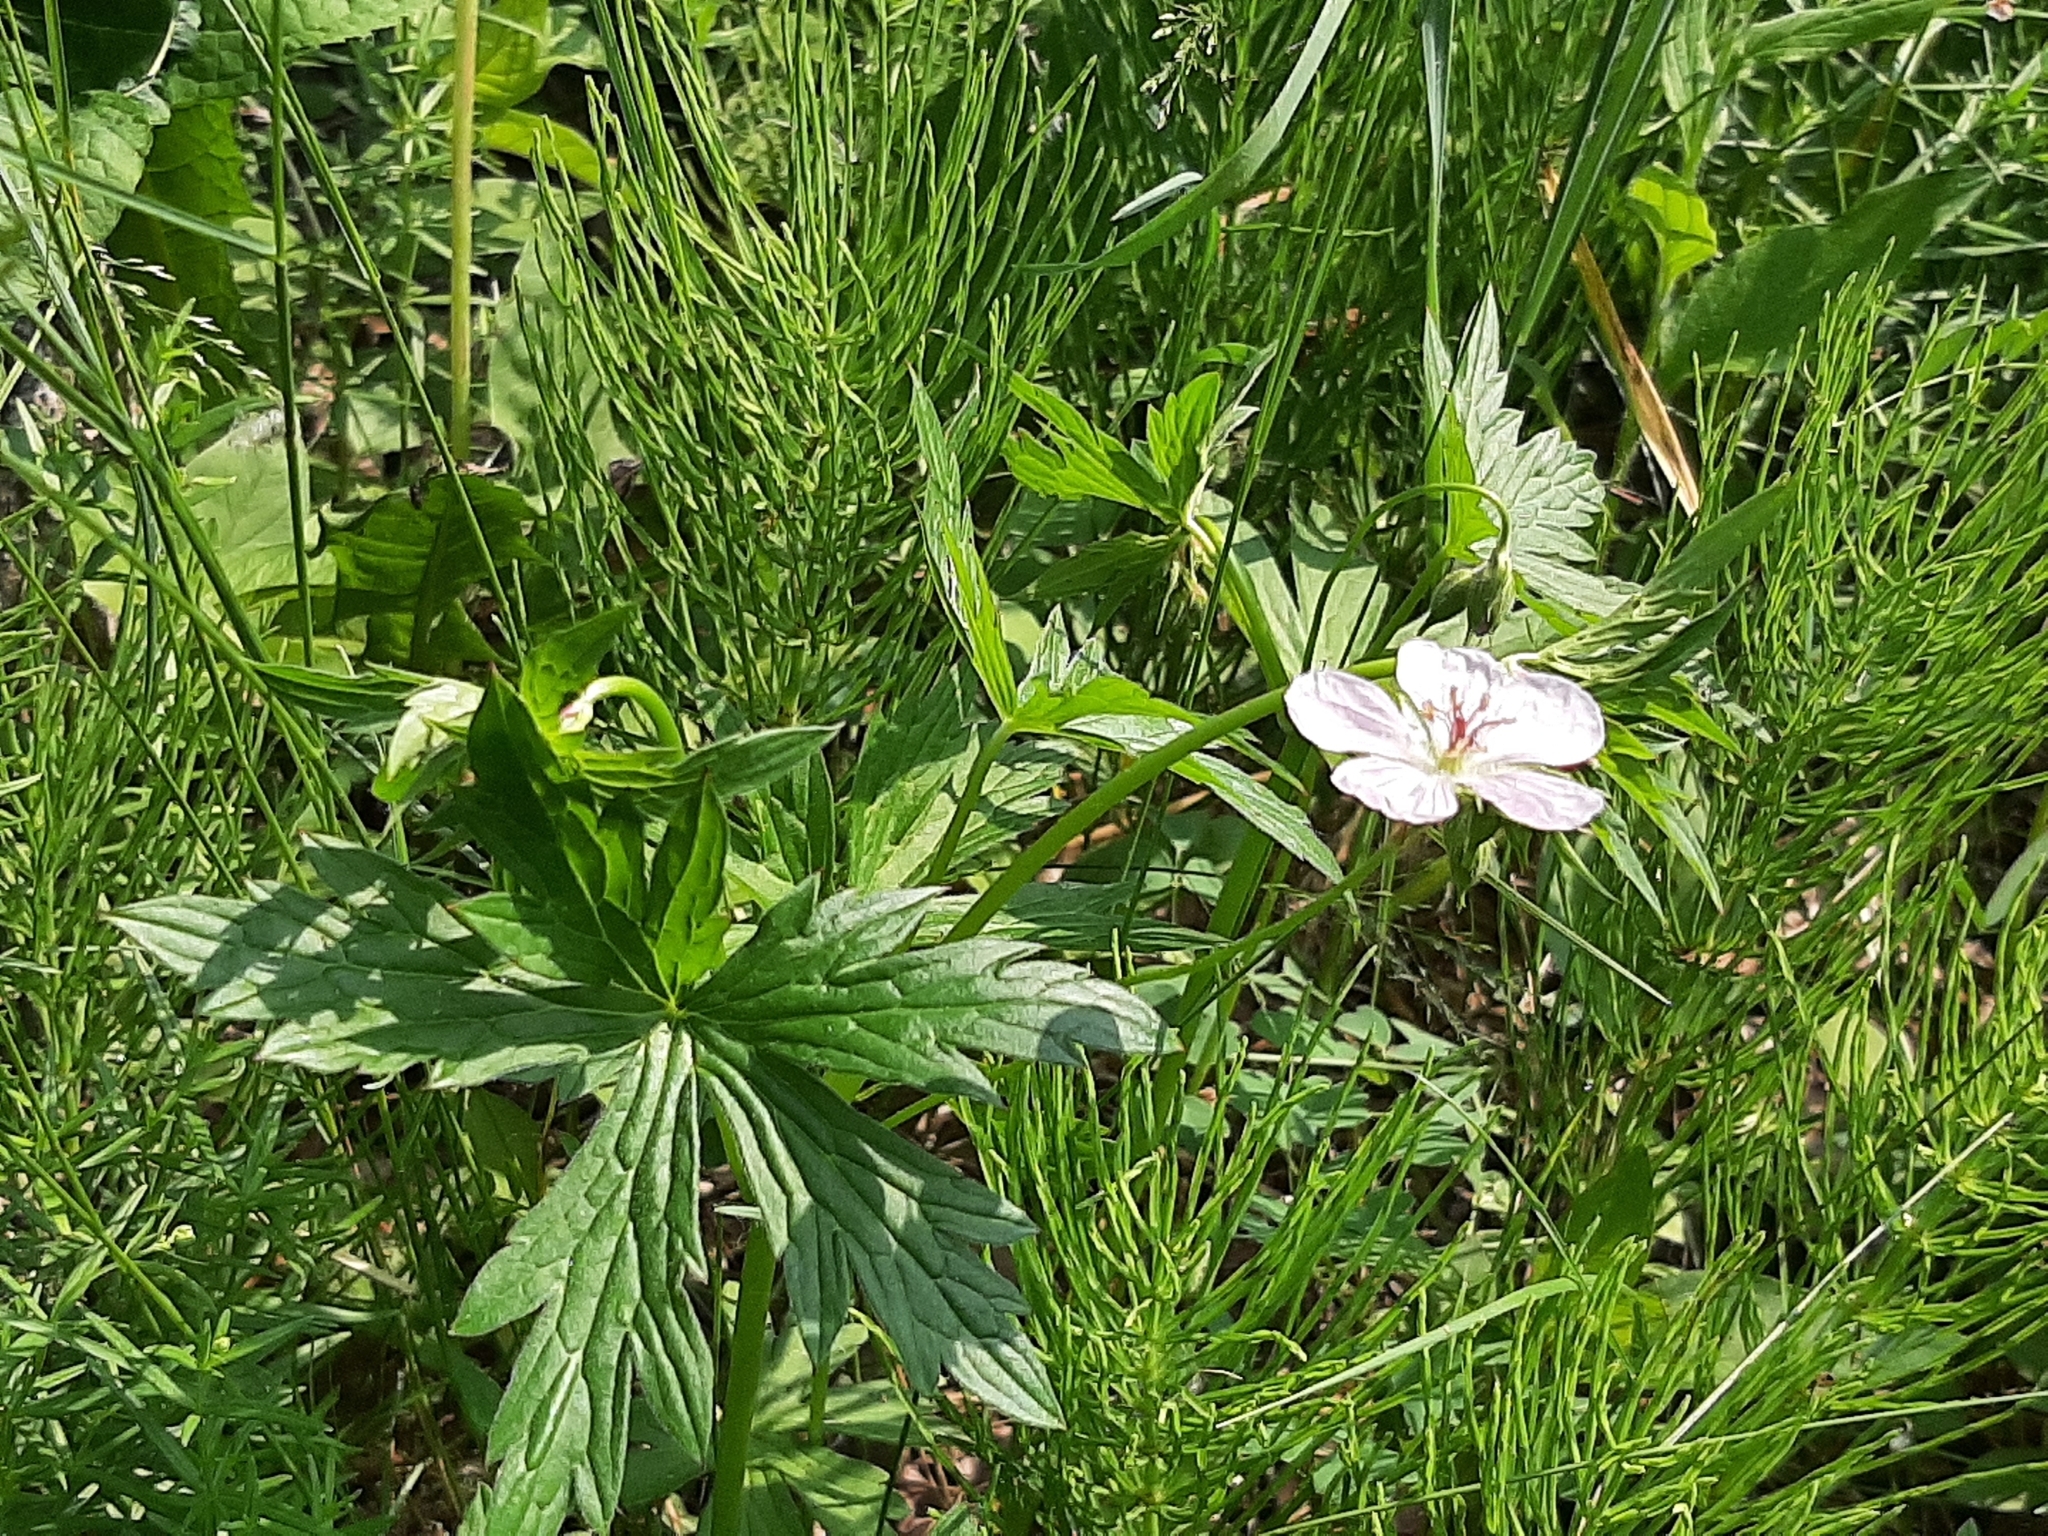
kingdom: Plantae
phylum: Tracheophyta
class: Magnoliopsida
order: Geraniales
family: Geraniaceae
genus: Geranium
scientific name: Geranium richardsonii
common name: Richardson's crane's-bill
